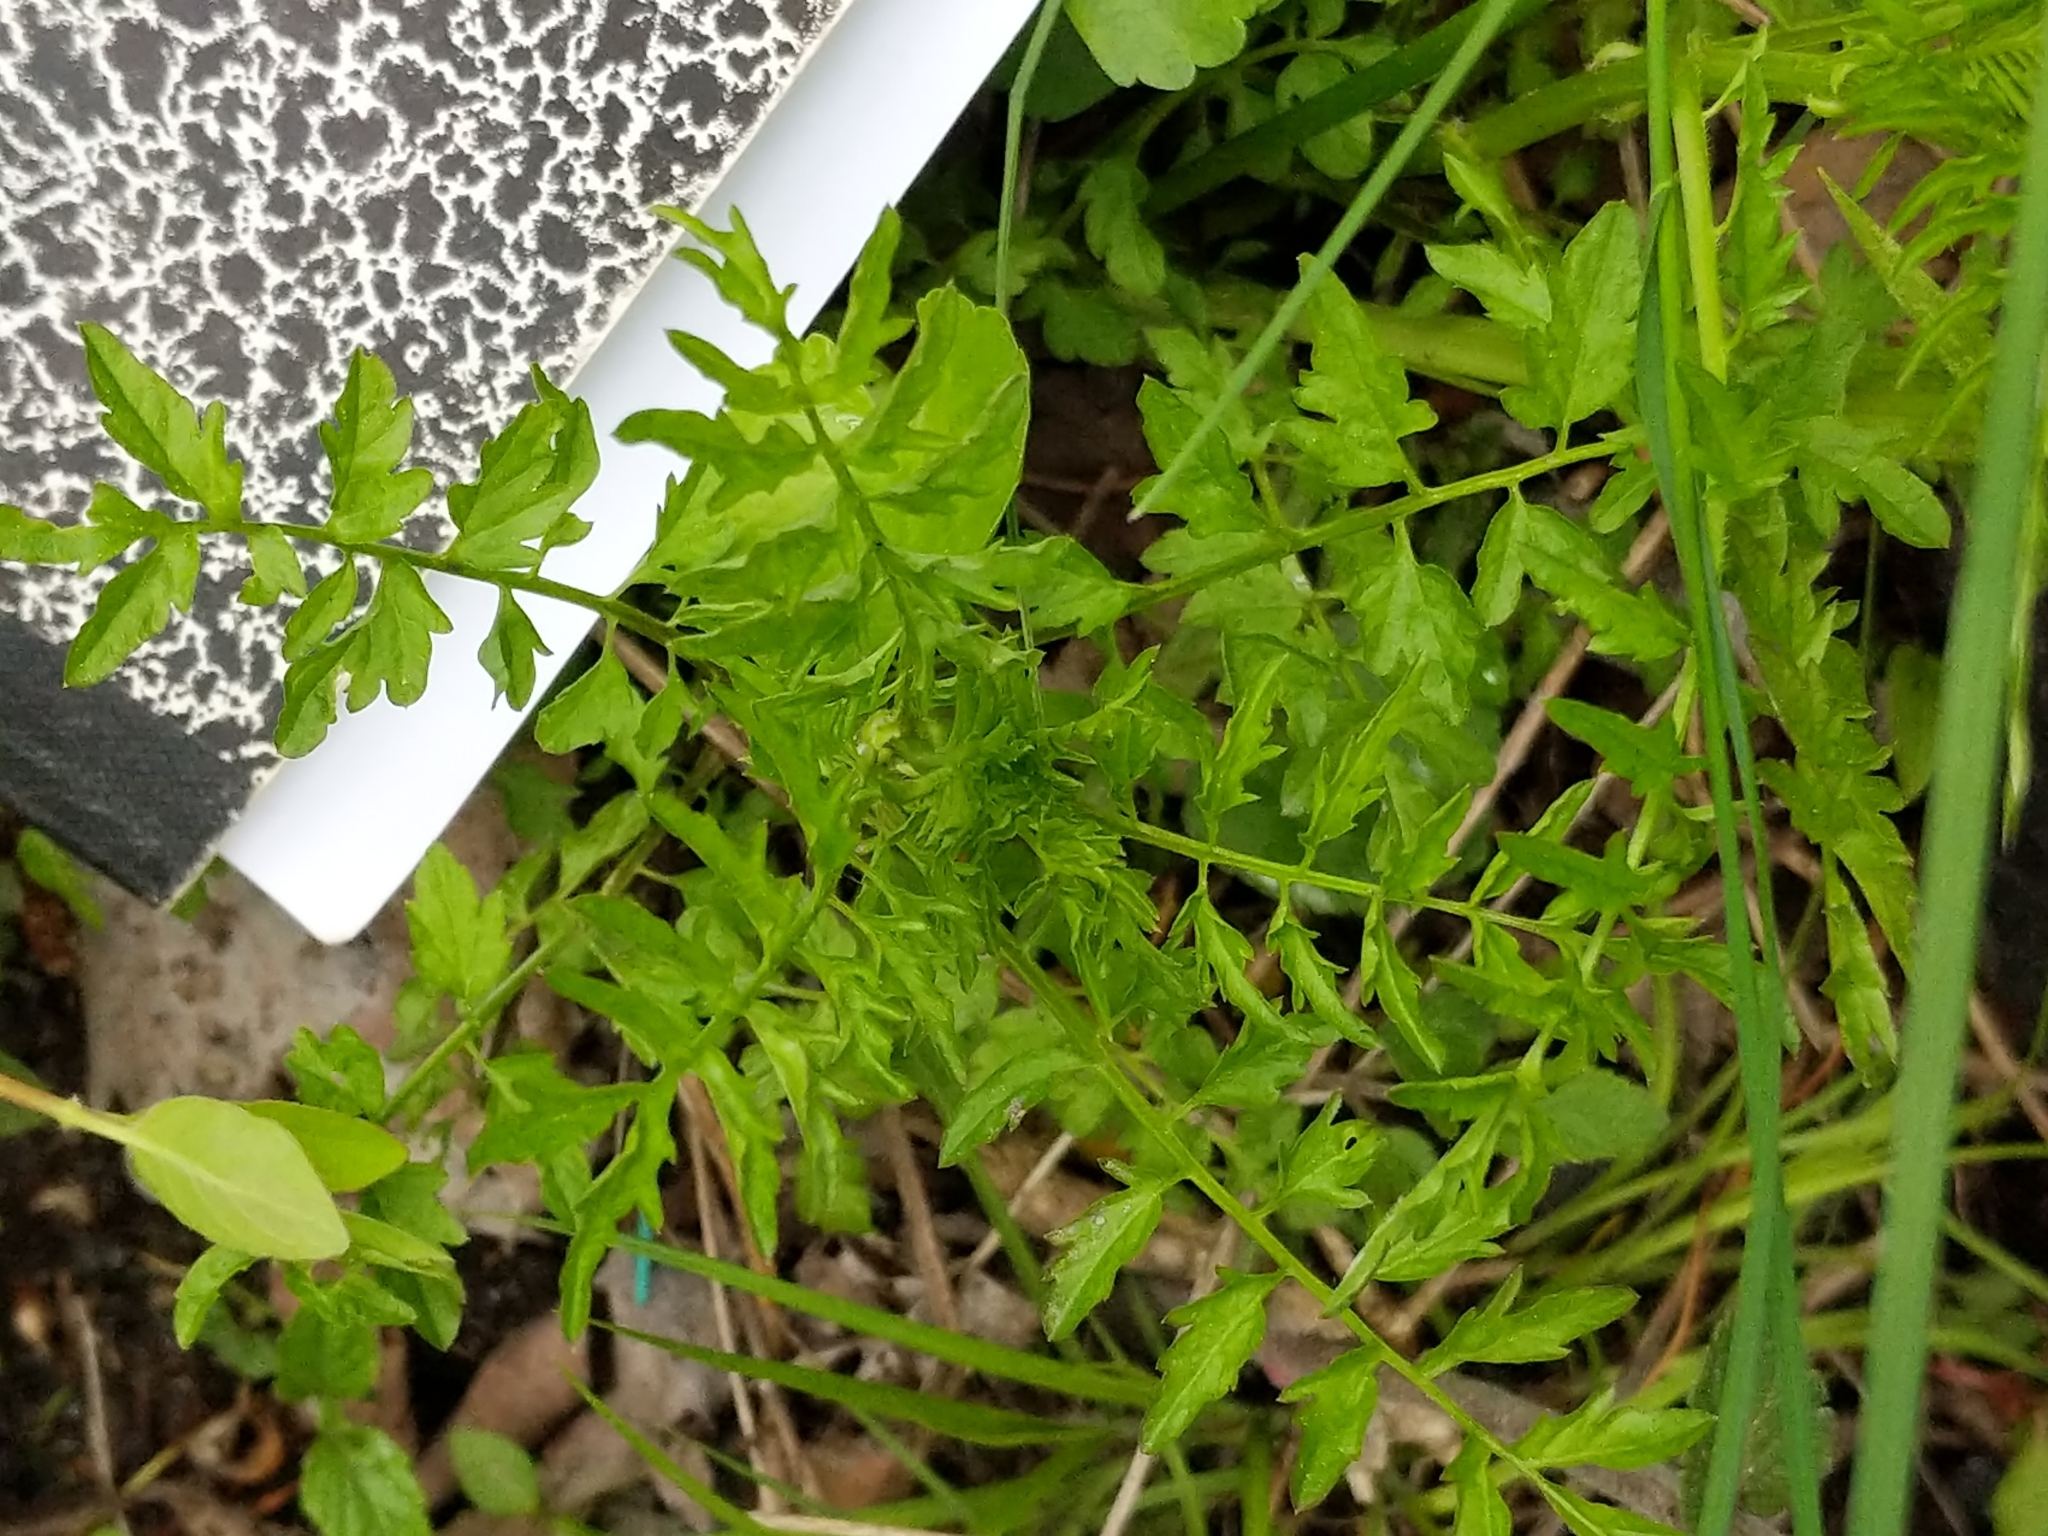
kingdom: Plantae
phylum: Tracheophyta
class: Magnoliopsida
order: Brassicales
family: Brassicaceae
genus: Cardamine
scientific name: Cardamine impatiens
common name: Narrow-leaved bitter-cress
